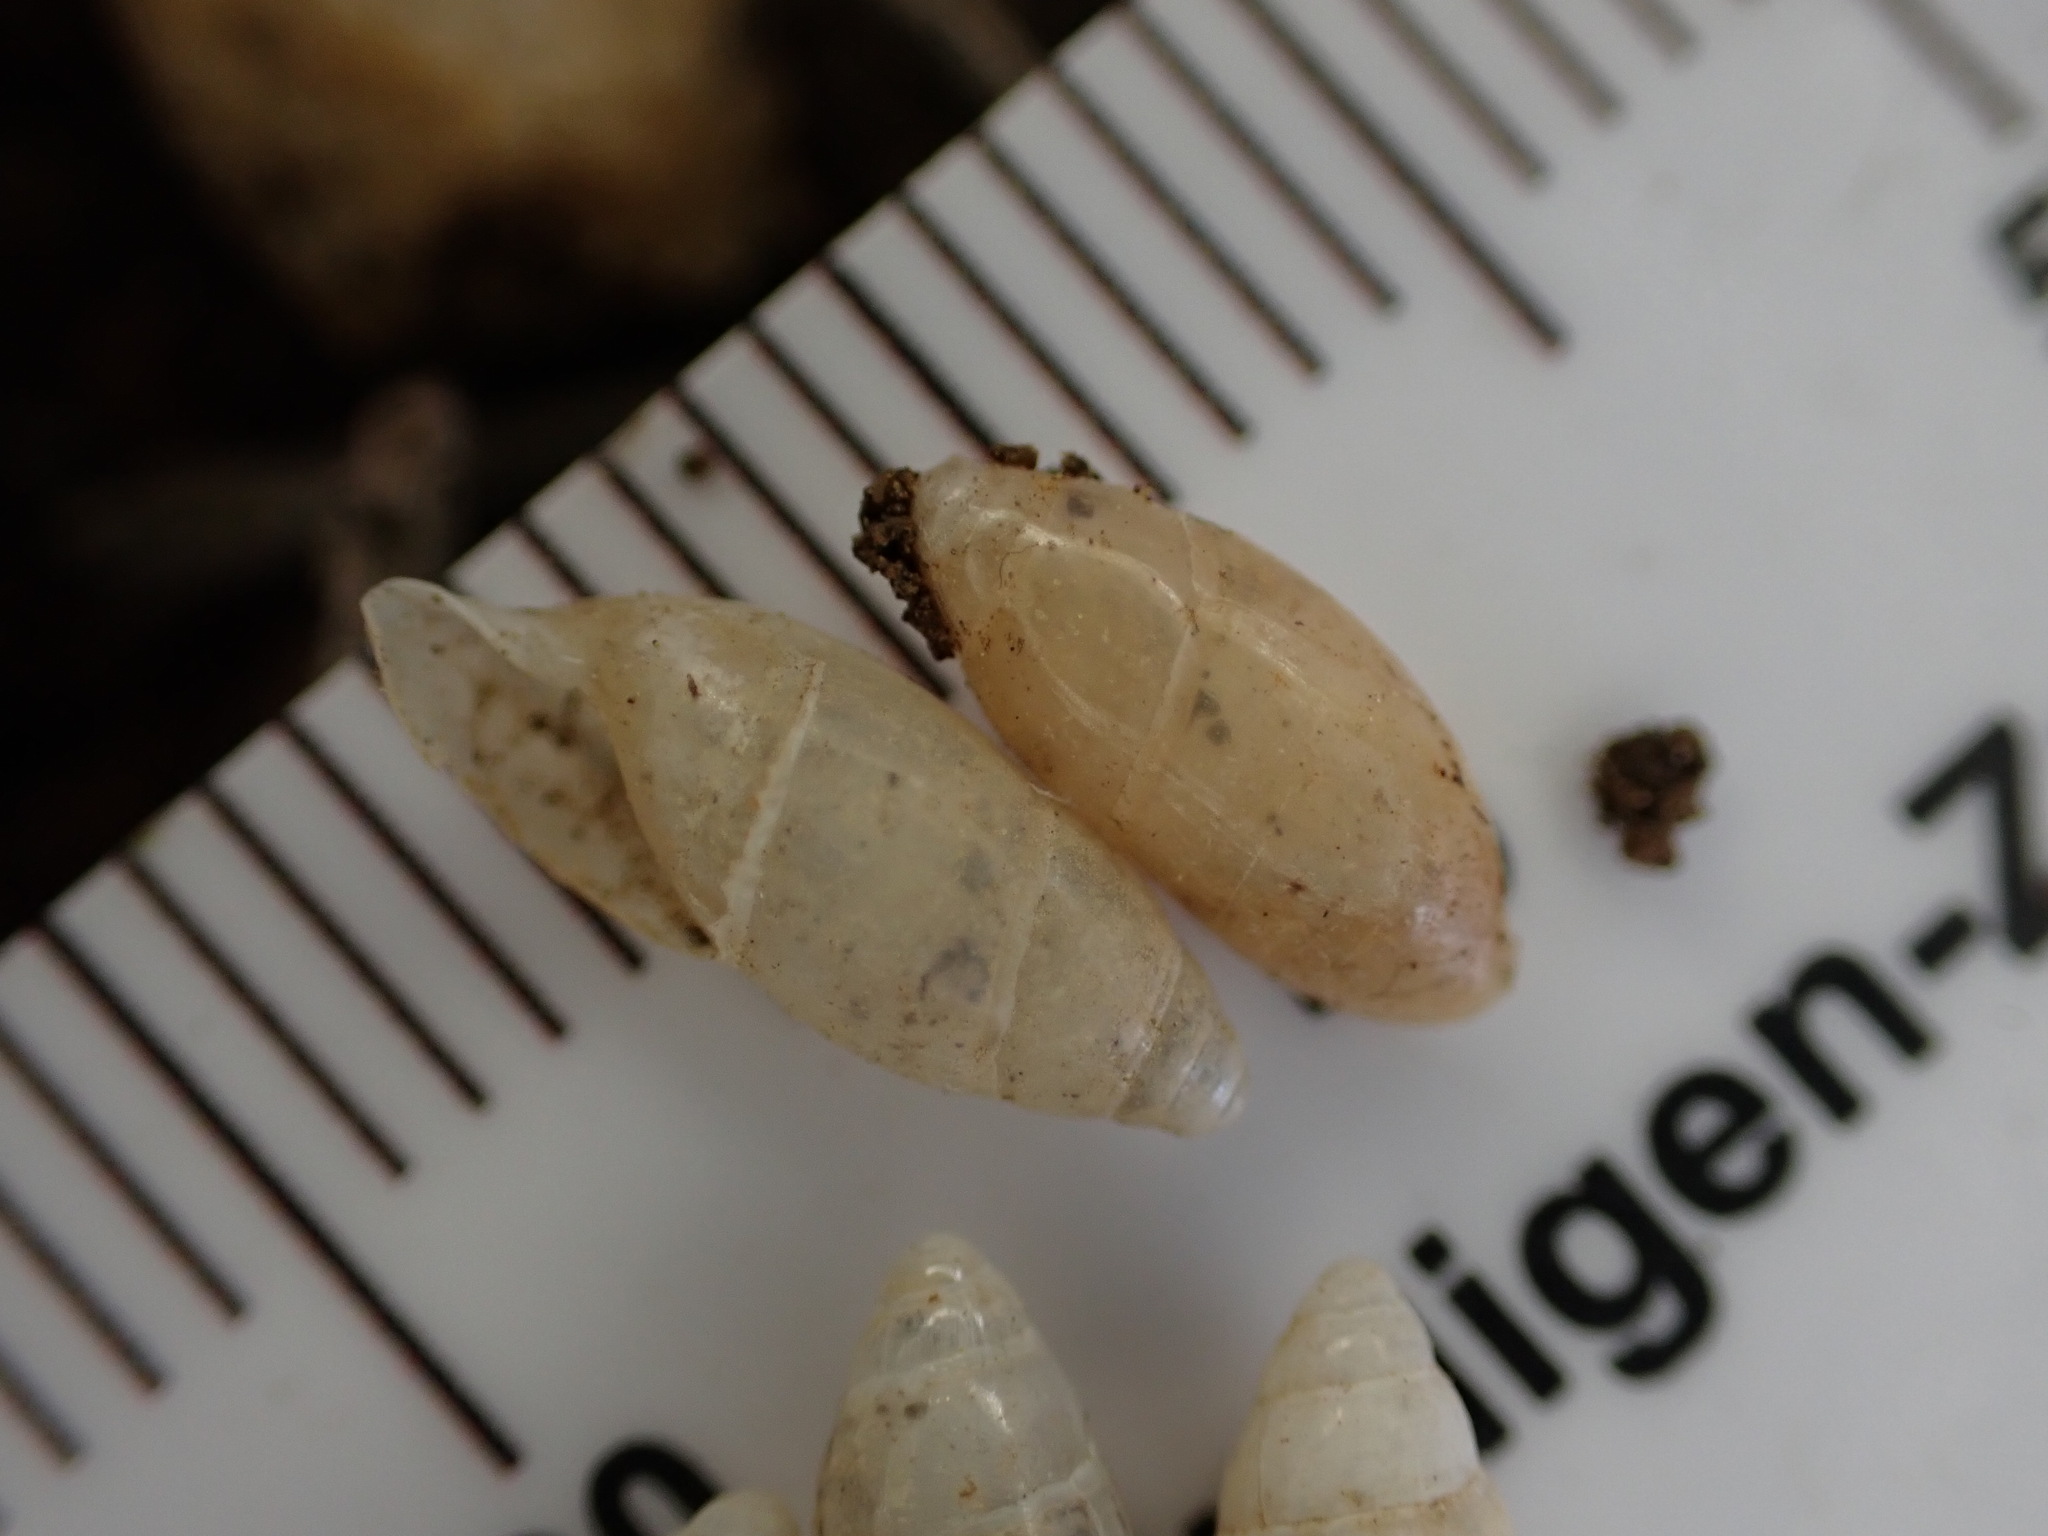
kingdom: Animalia
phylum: Mollusca
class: Gastropoda
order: Stylommatophora
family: Ferussaciidae
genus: Ferussacia
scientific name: Ferussacia folliculum
